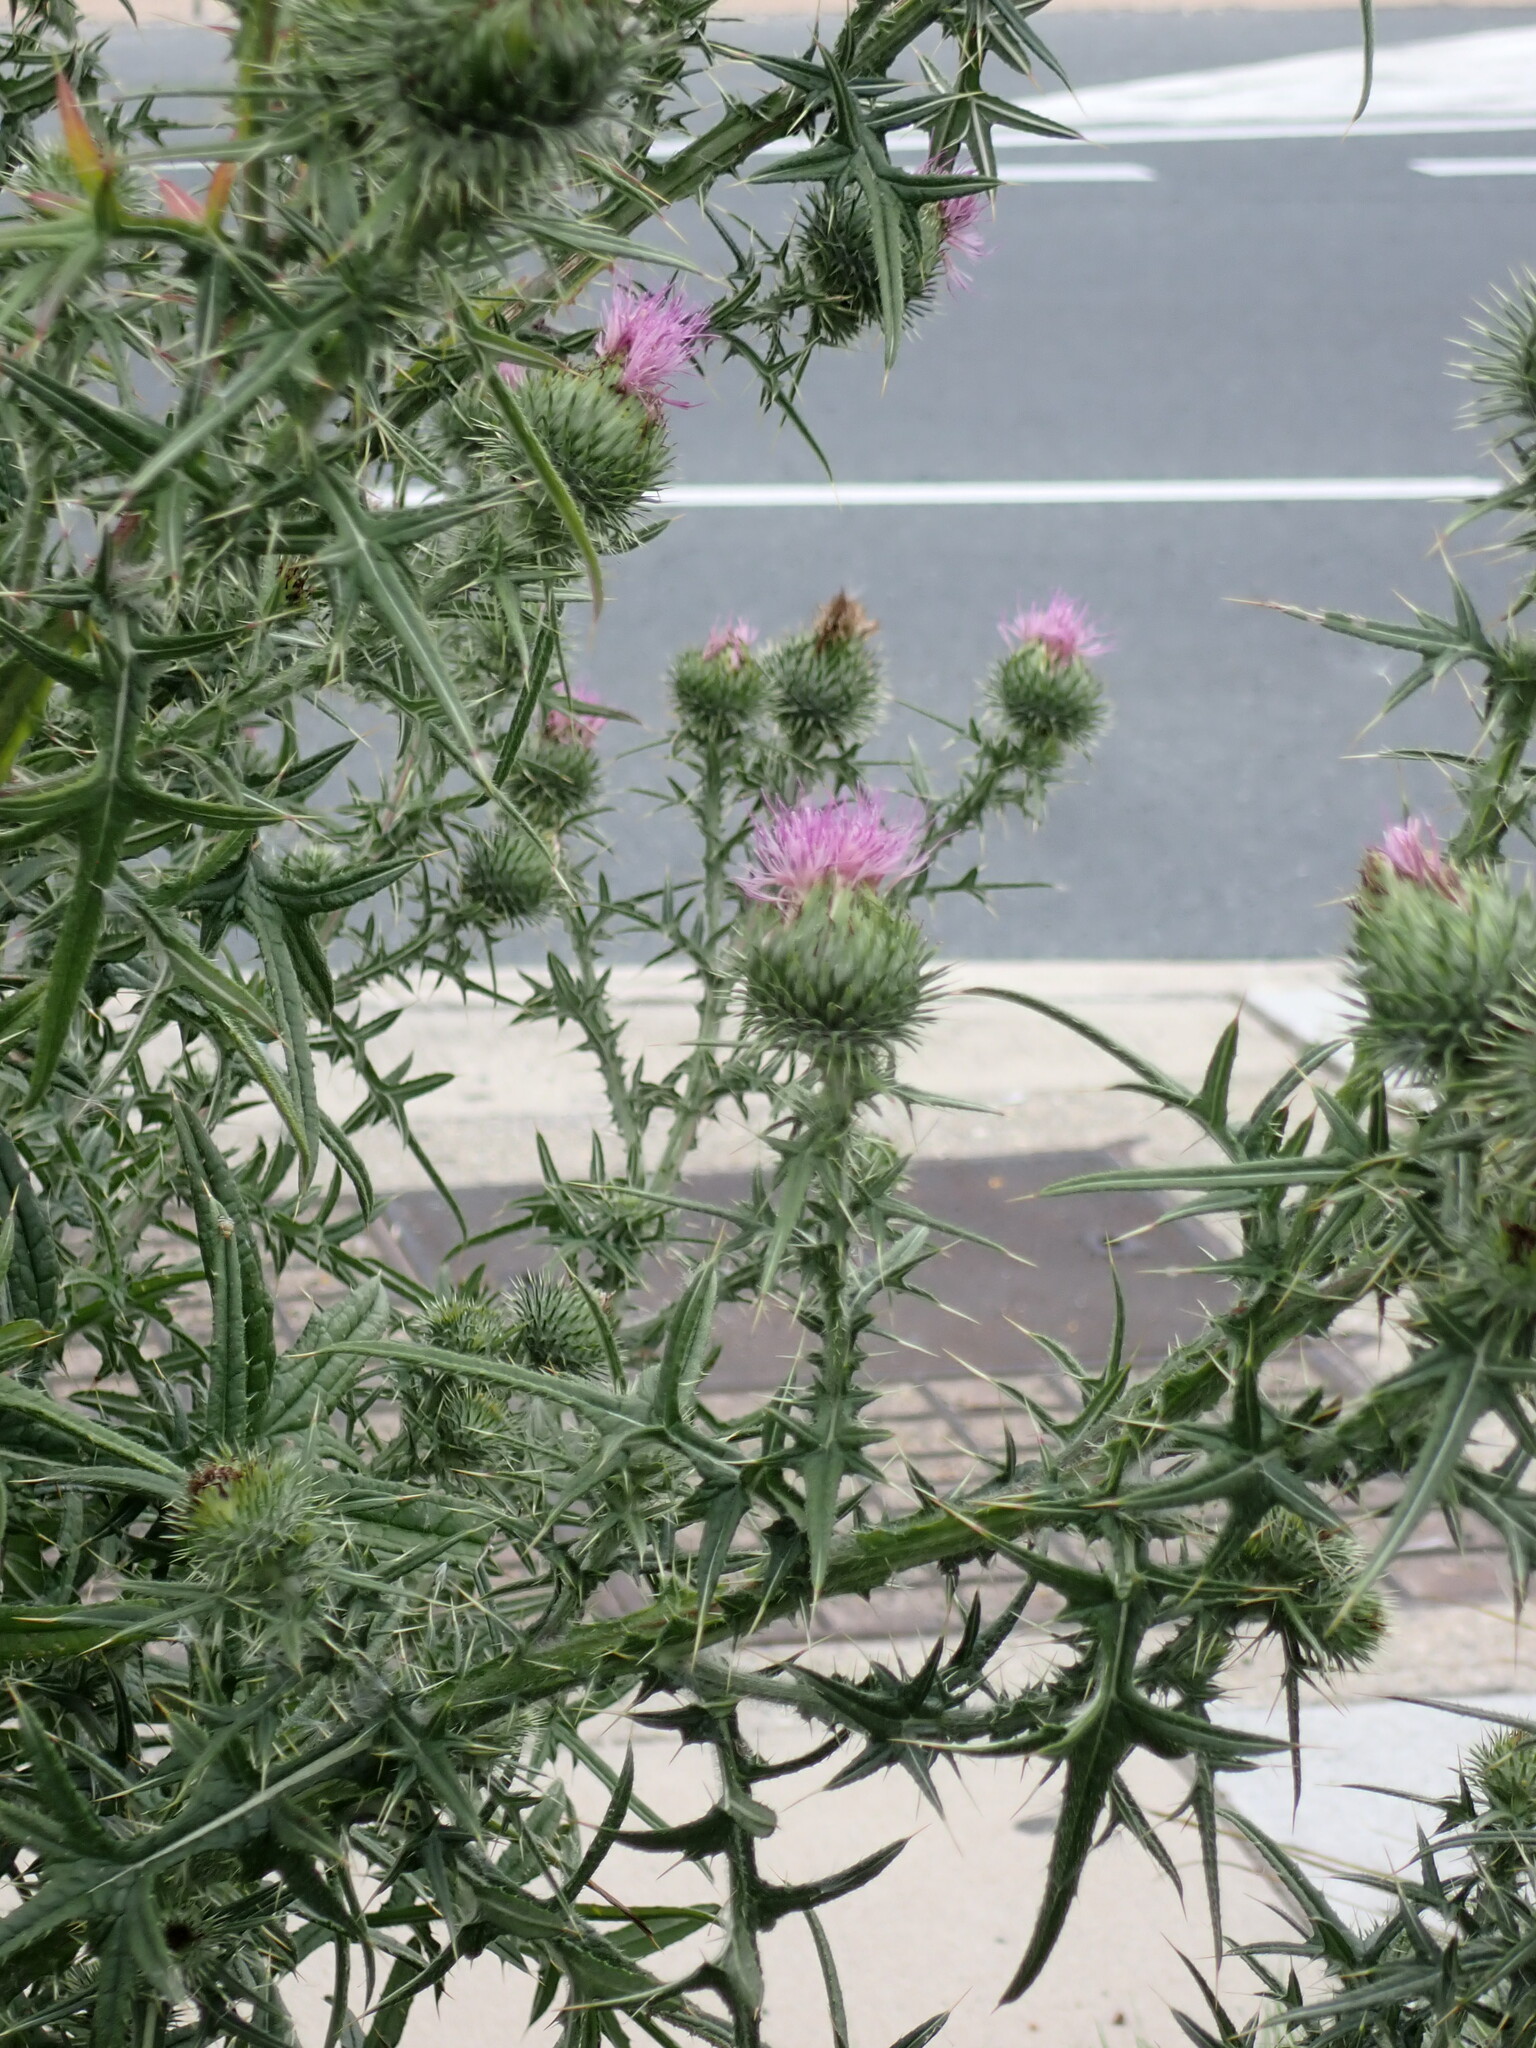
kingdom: Plantae
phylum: Tracheophyta
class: Magnoliopsida
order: Asterales
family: Asteraceae
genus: Cirsium
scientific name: Cirsium vulgare
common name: Bull thistle
